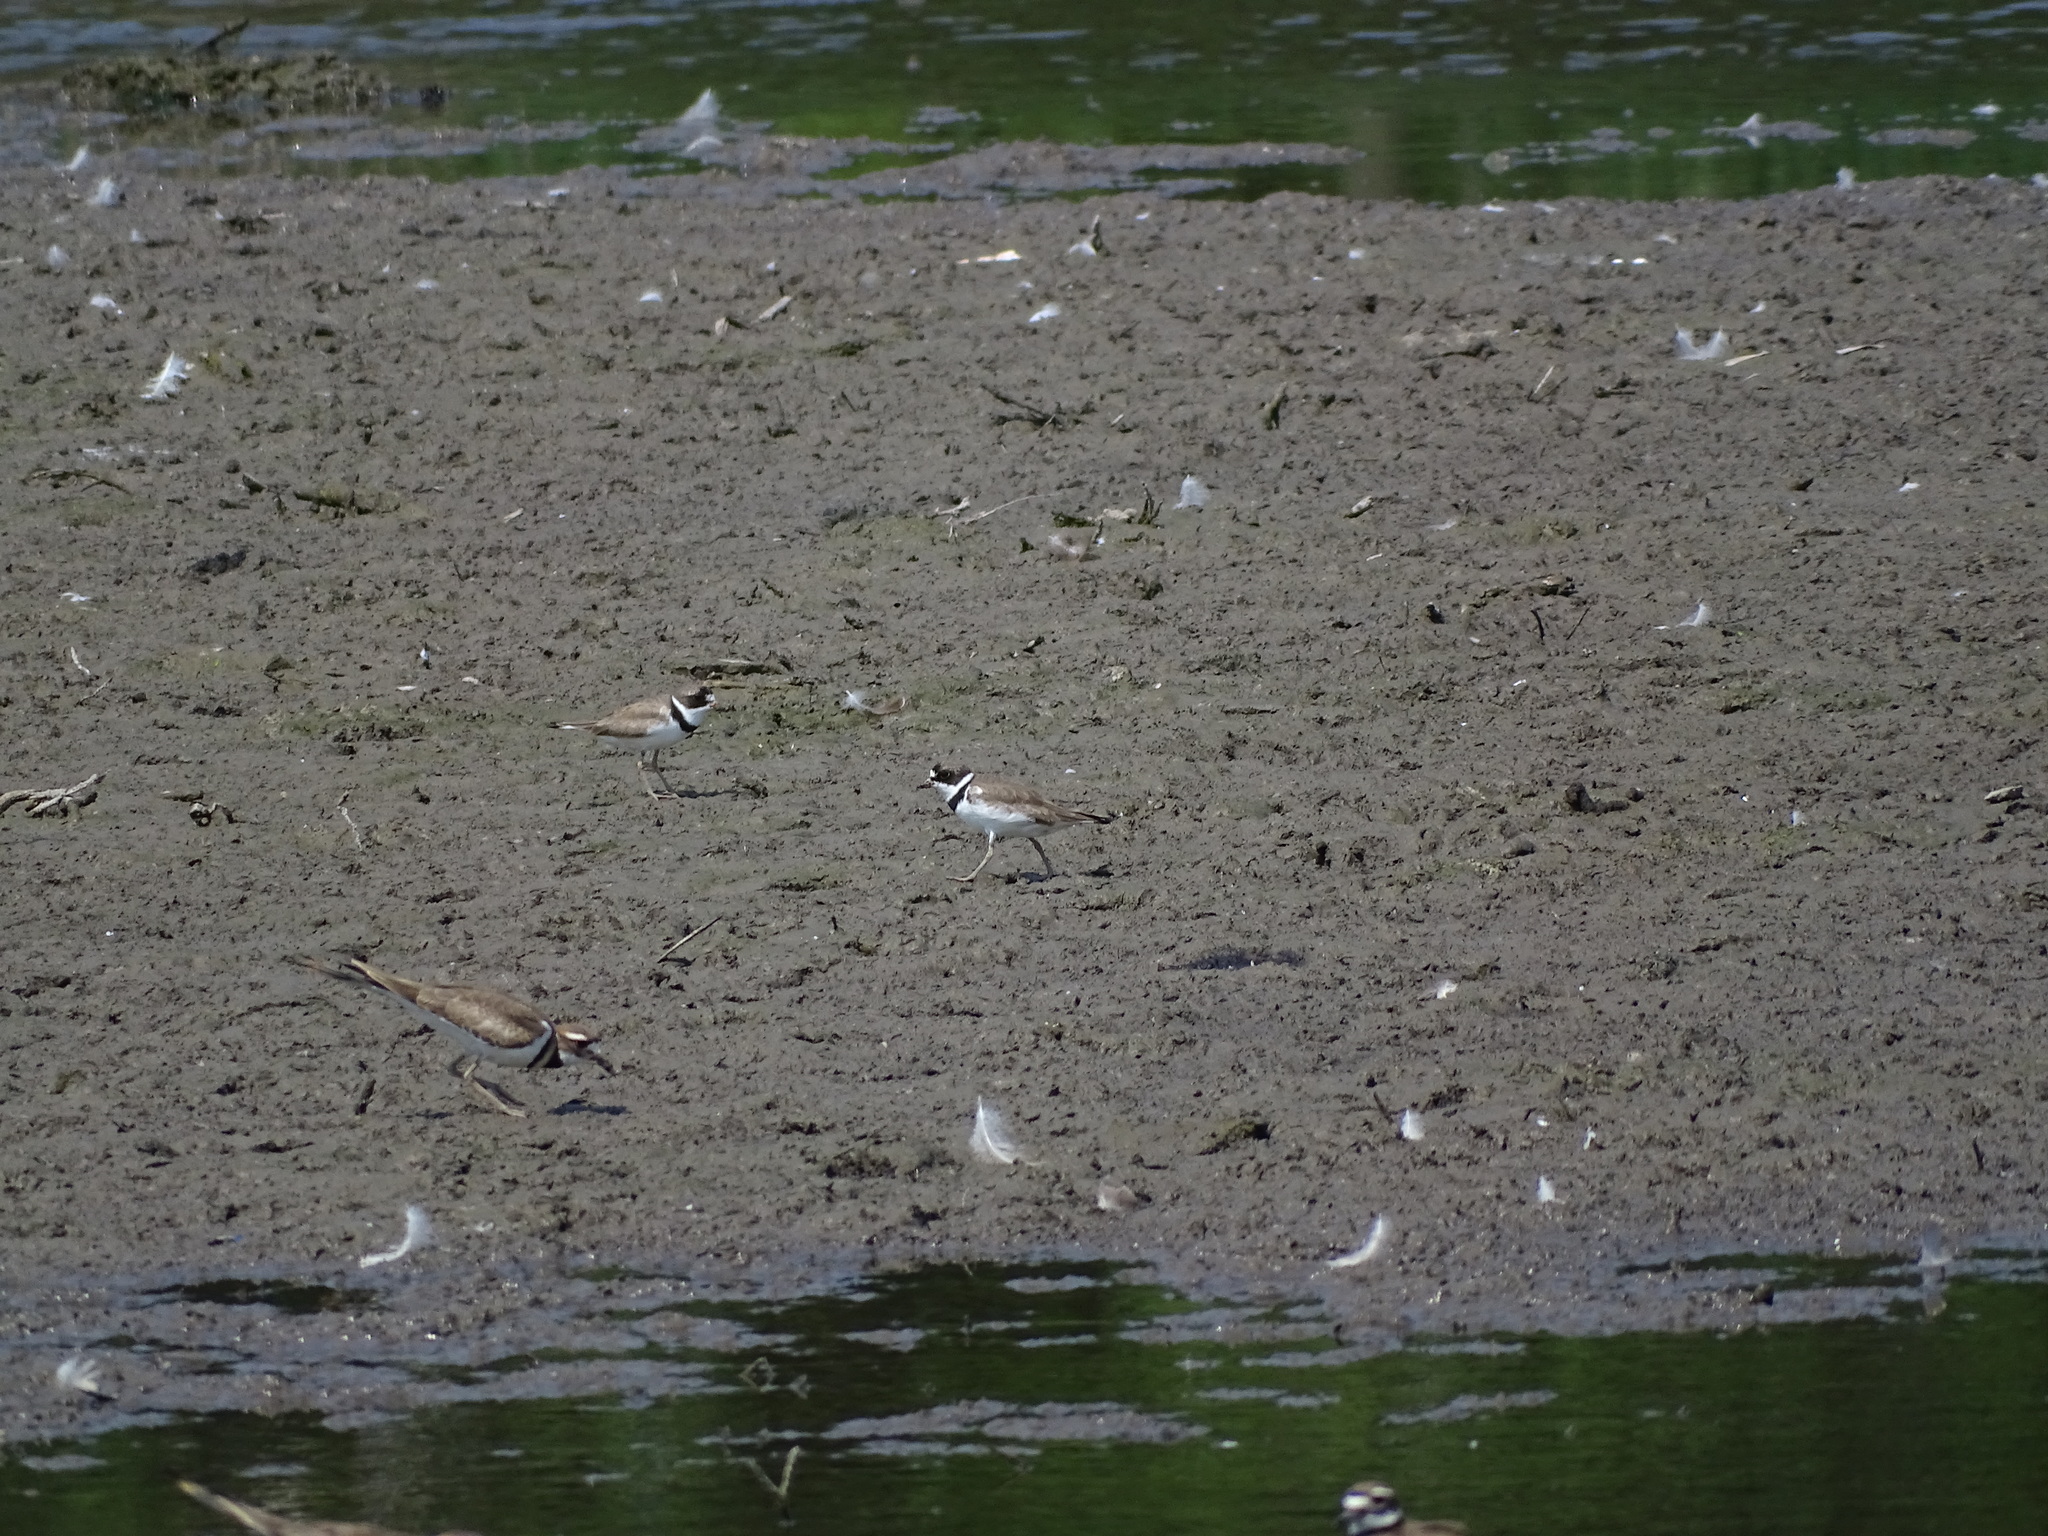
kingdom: Animalia
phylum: Chordata
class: Aves
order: Charadriiformes
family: Charadriidae
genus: Charadrius
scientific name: Charadrius semipalmatus
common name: Semipalmated plover
